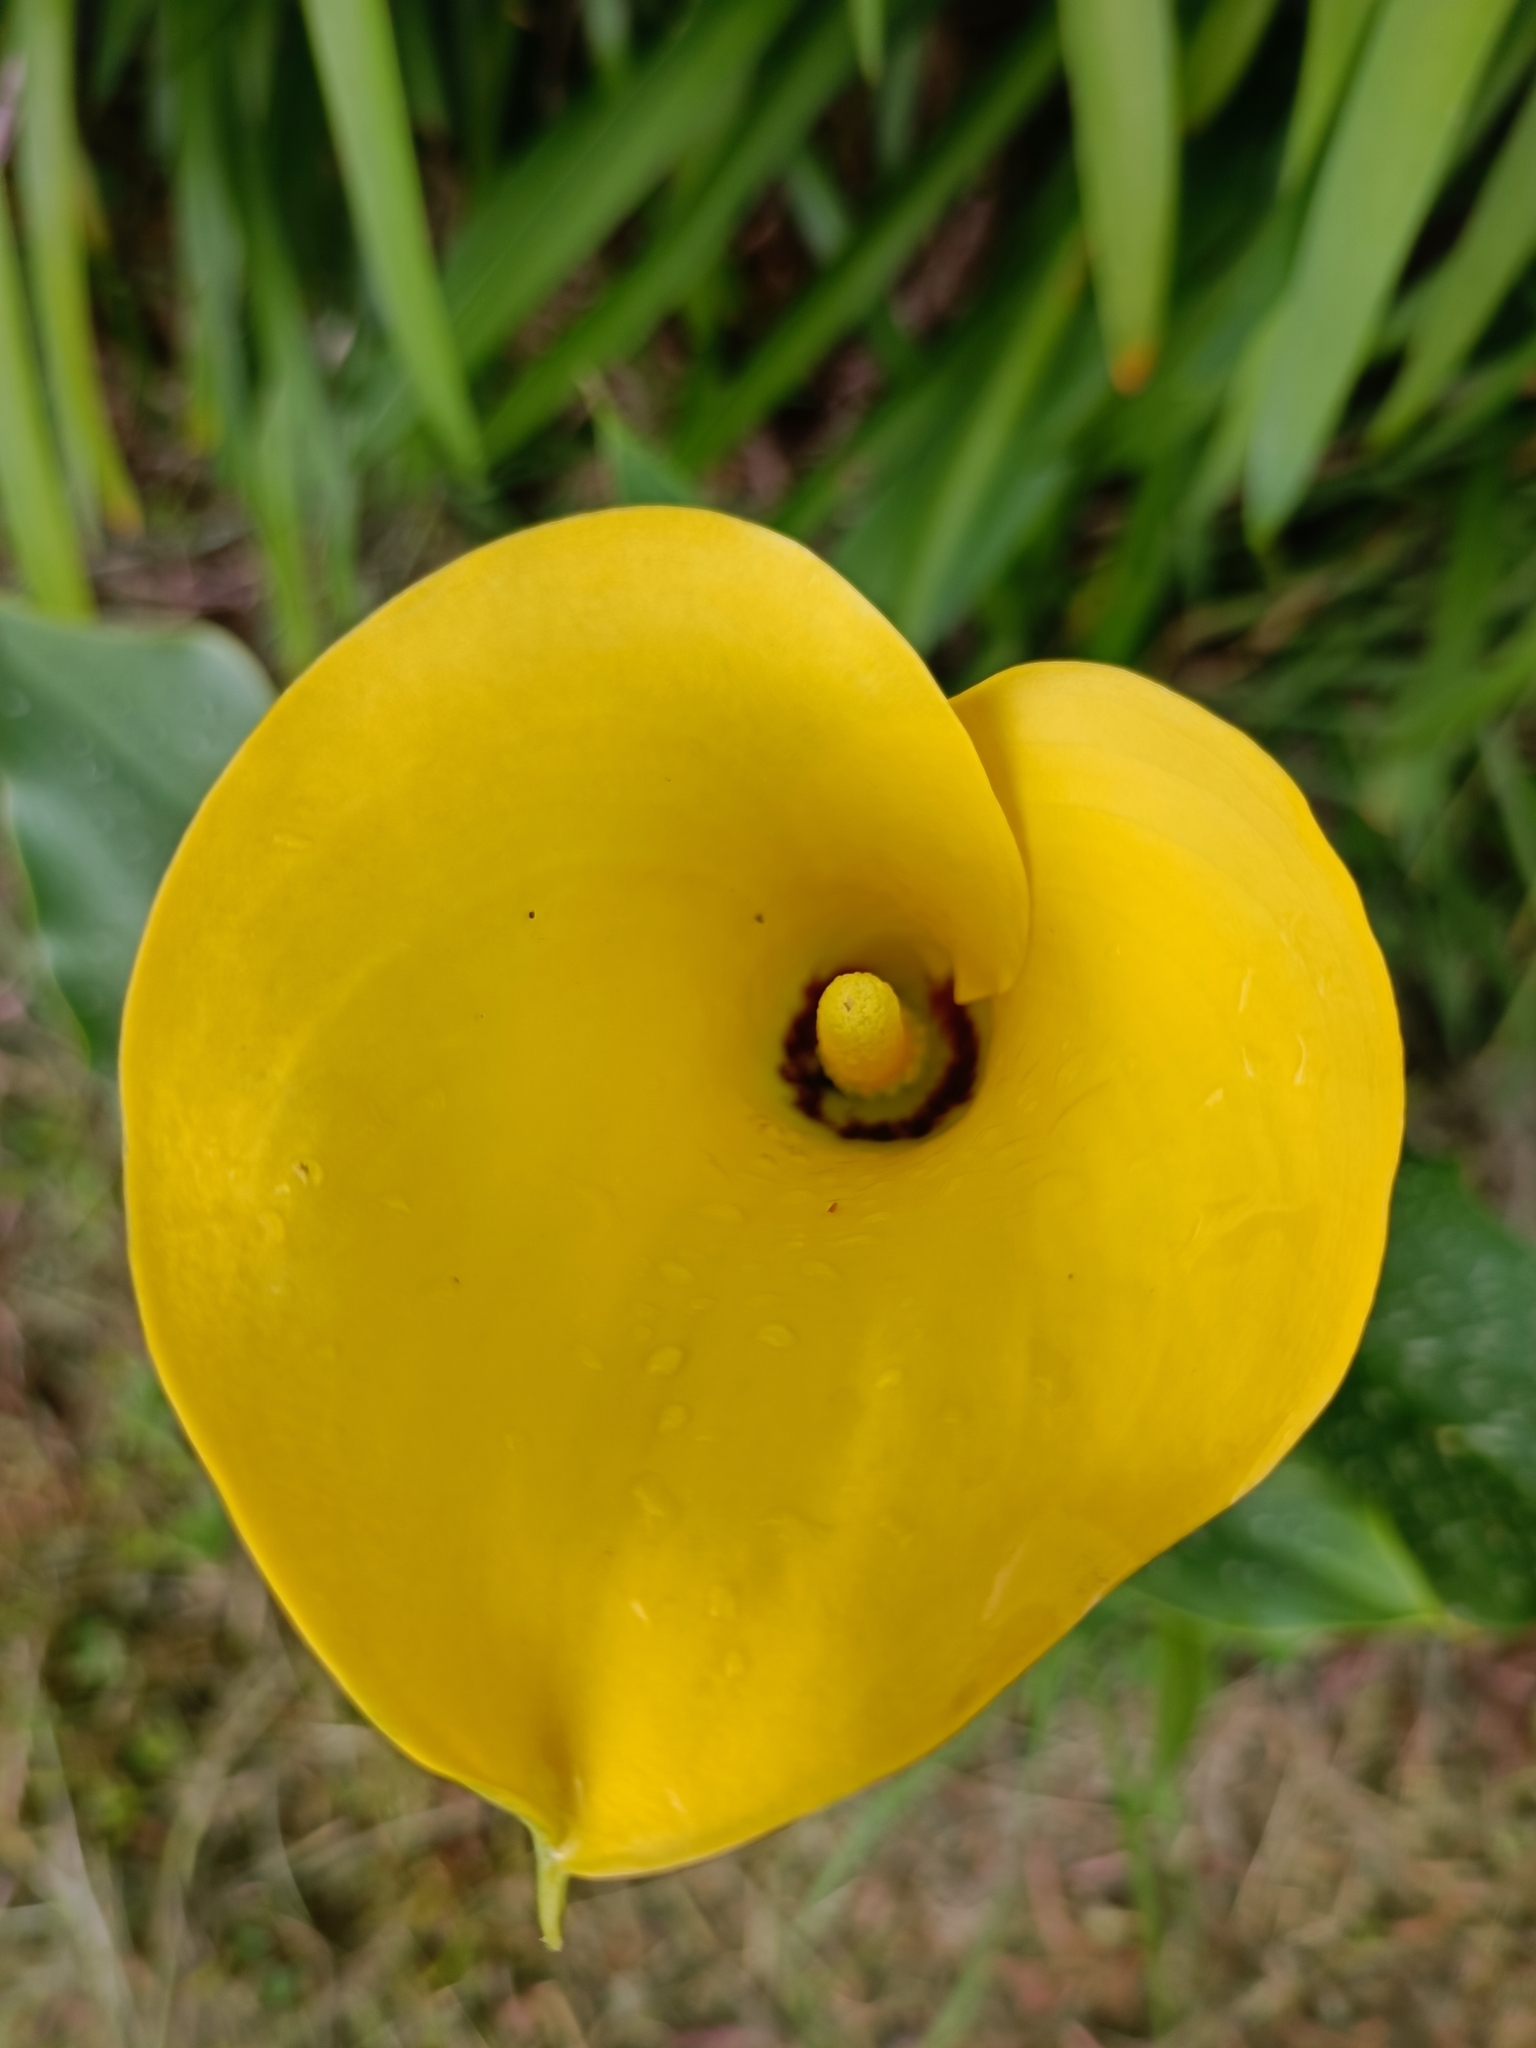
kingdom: Plantae
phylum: Tracheophyta
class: Liliopsida
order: Alismatales
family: Araceae
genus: Zantedeschia
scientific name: Zantedeschia albomaculata
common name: Spotted calla lily
